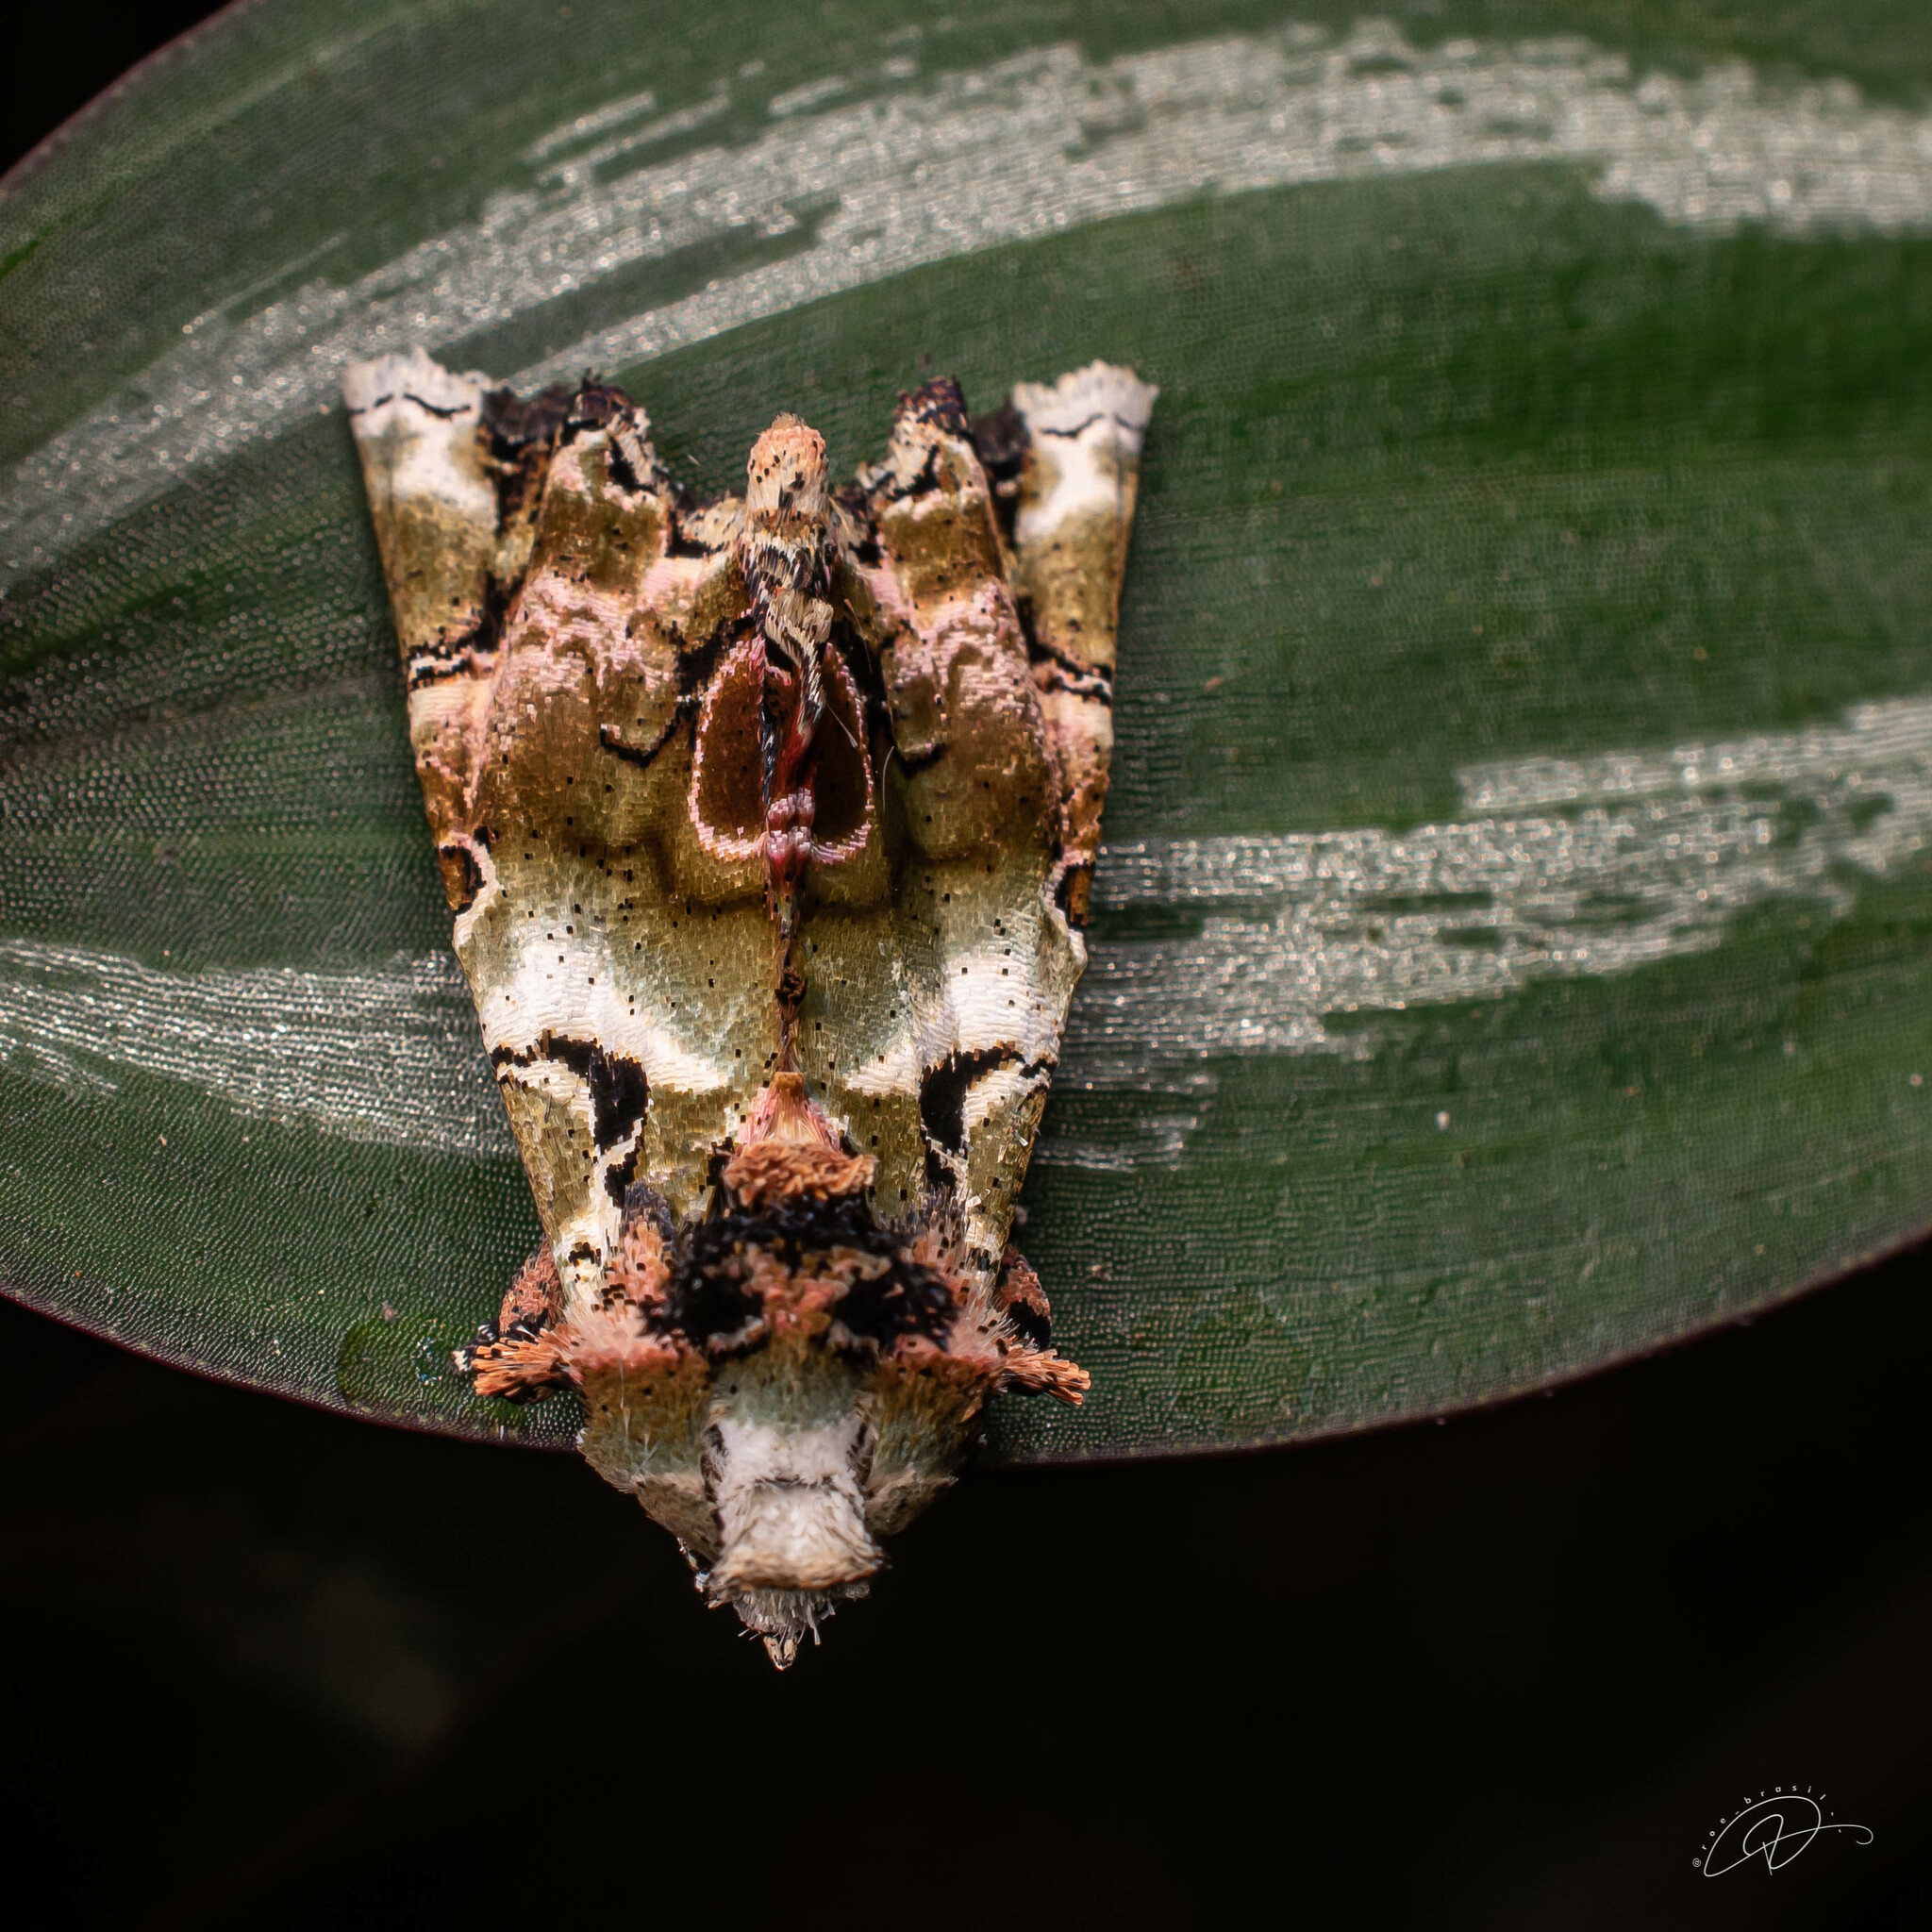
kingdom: Animalia
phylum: Arthropoda
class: Insecta
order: Lepidoptera
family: Noctuidae
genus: Heterochroma
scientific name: Heterochroma hypatia
